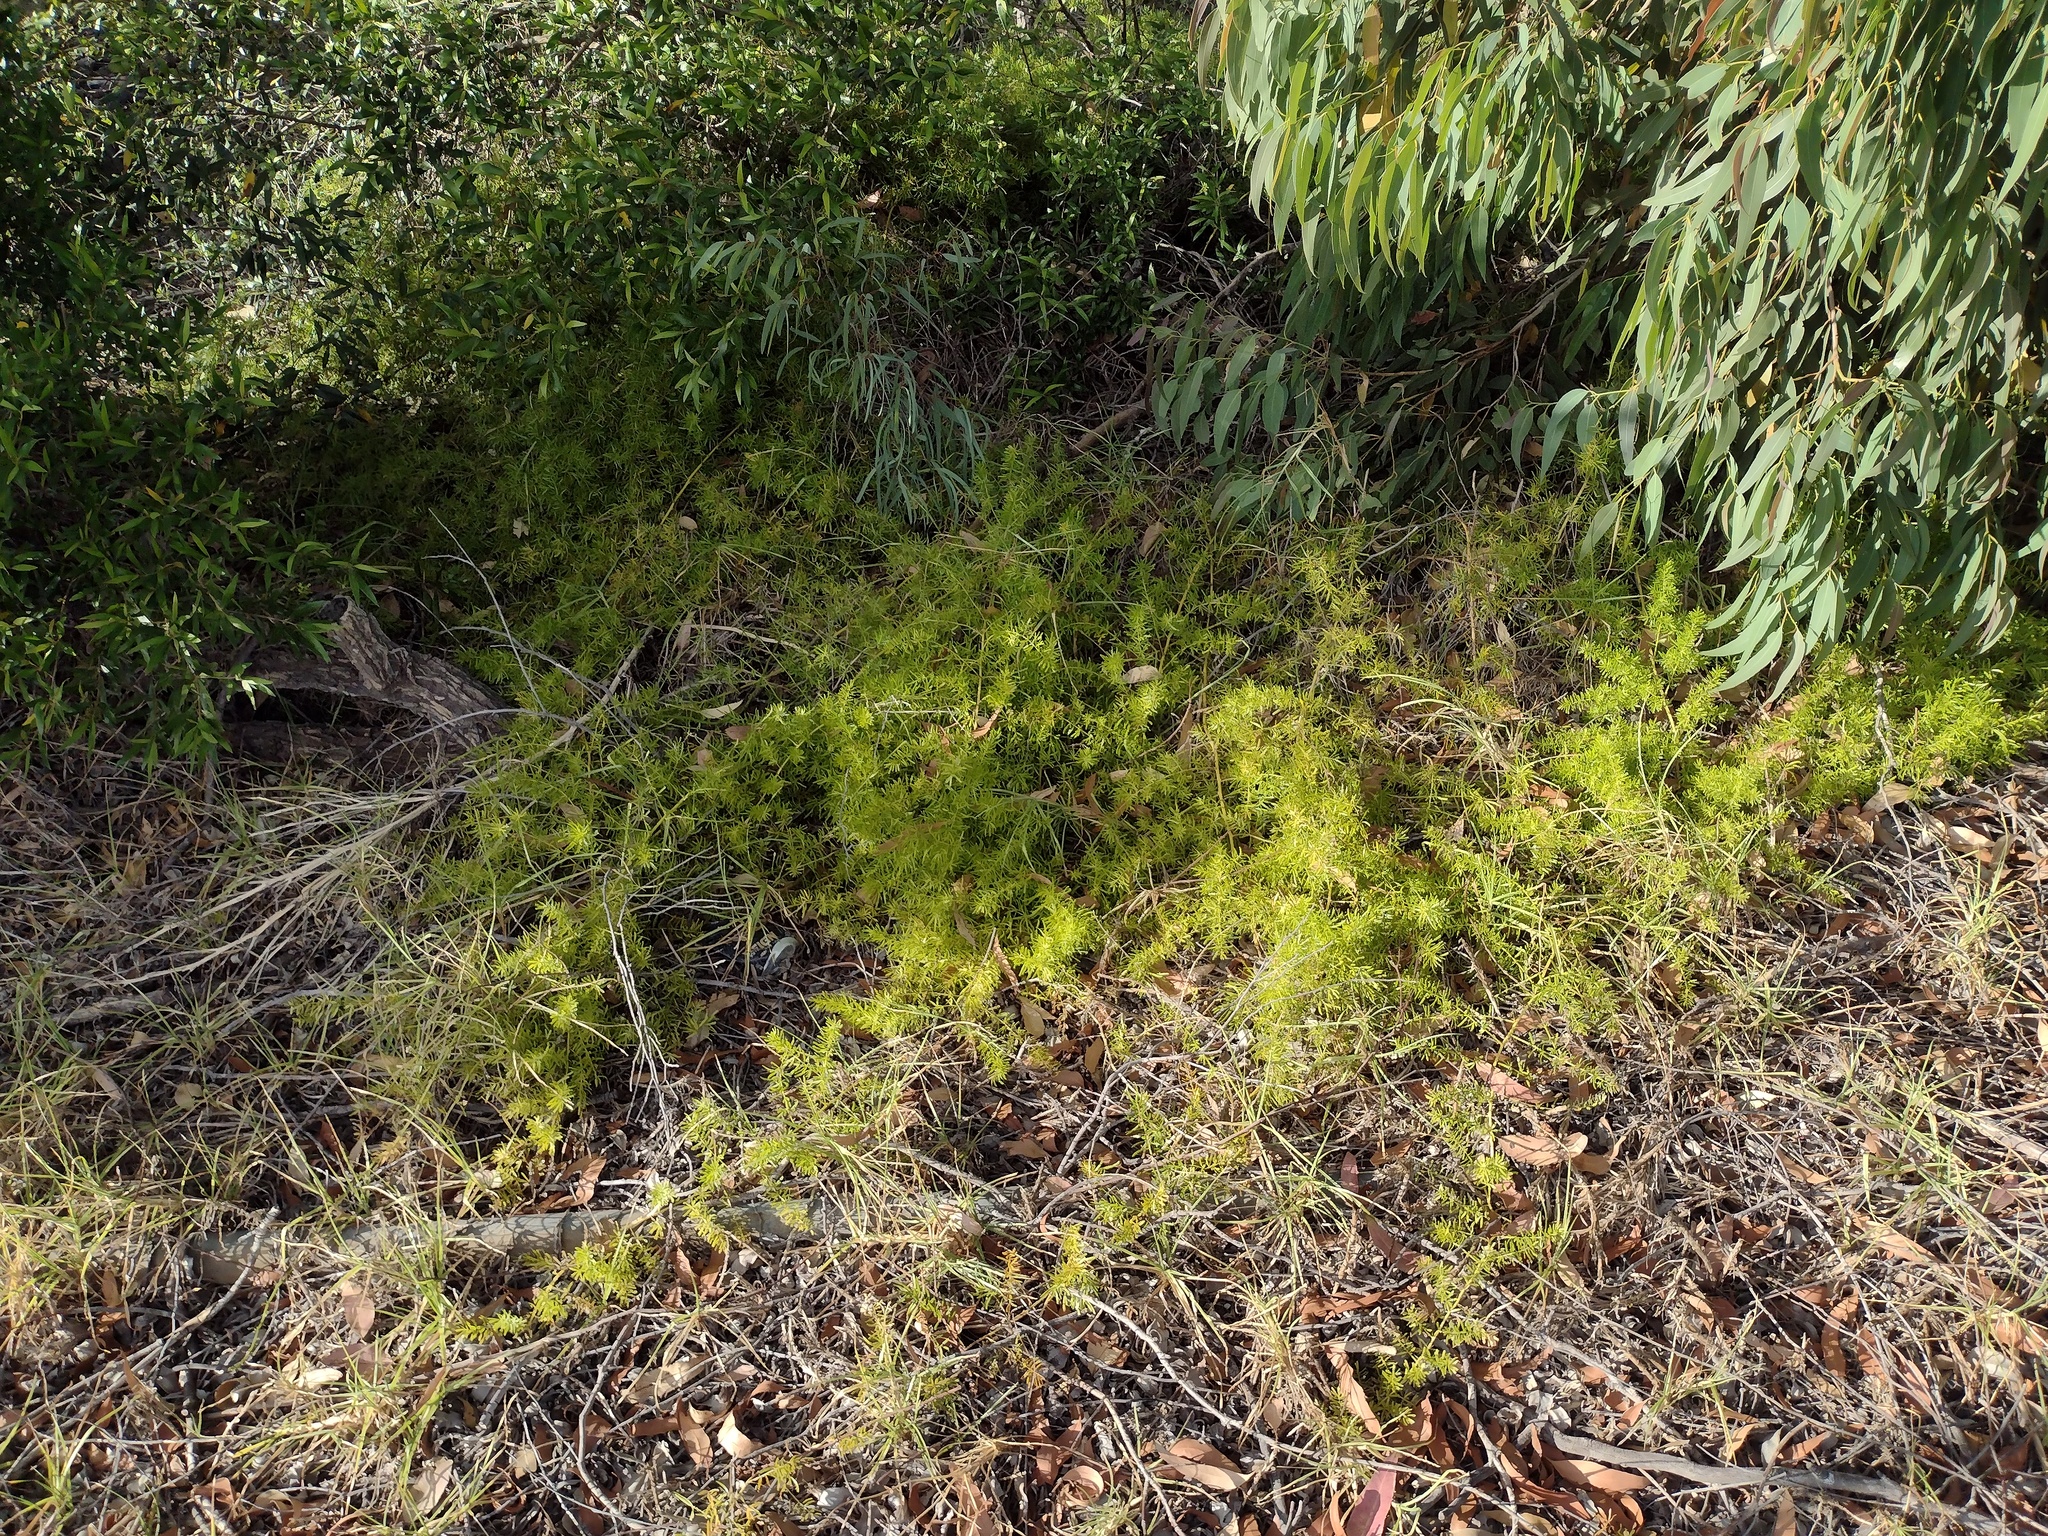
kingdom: Plantae
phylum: Tracheophyta
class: Liliopsida
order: Asparagales
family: Asparagaceae
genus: Asparagus
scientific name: Asparagus aethiopicus
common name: Sprenger's asparagus fern
